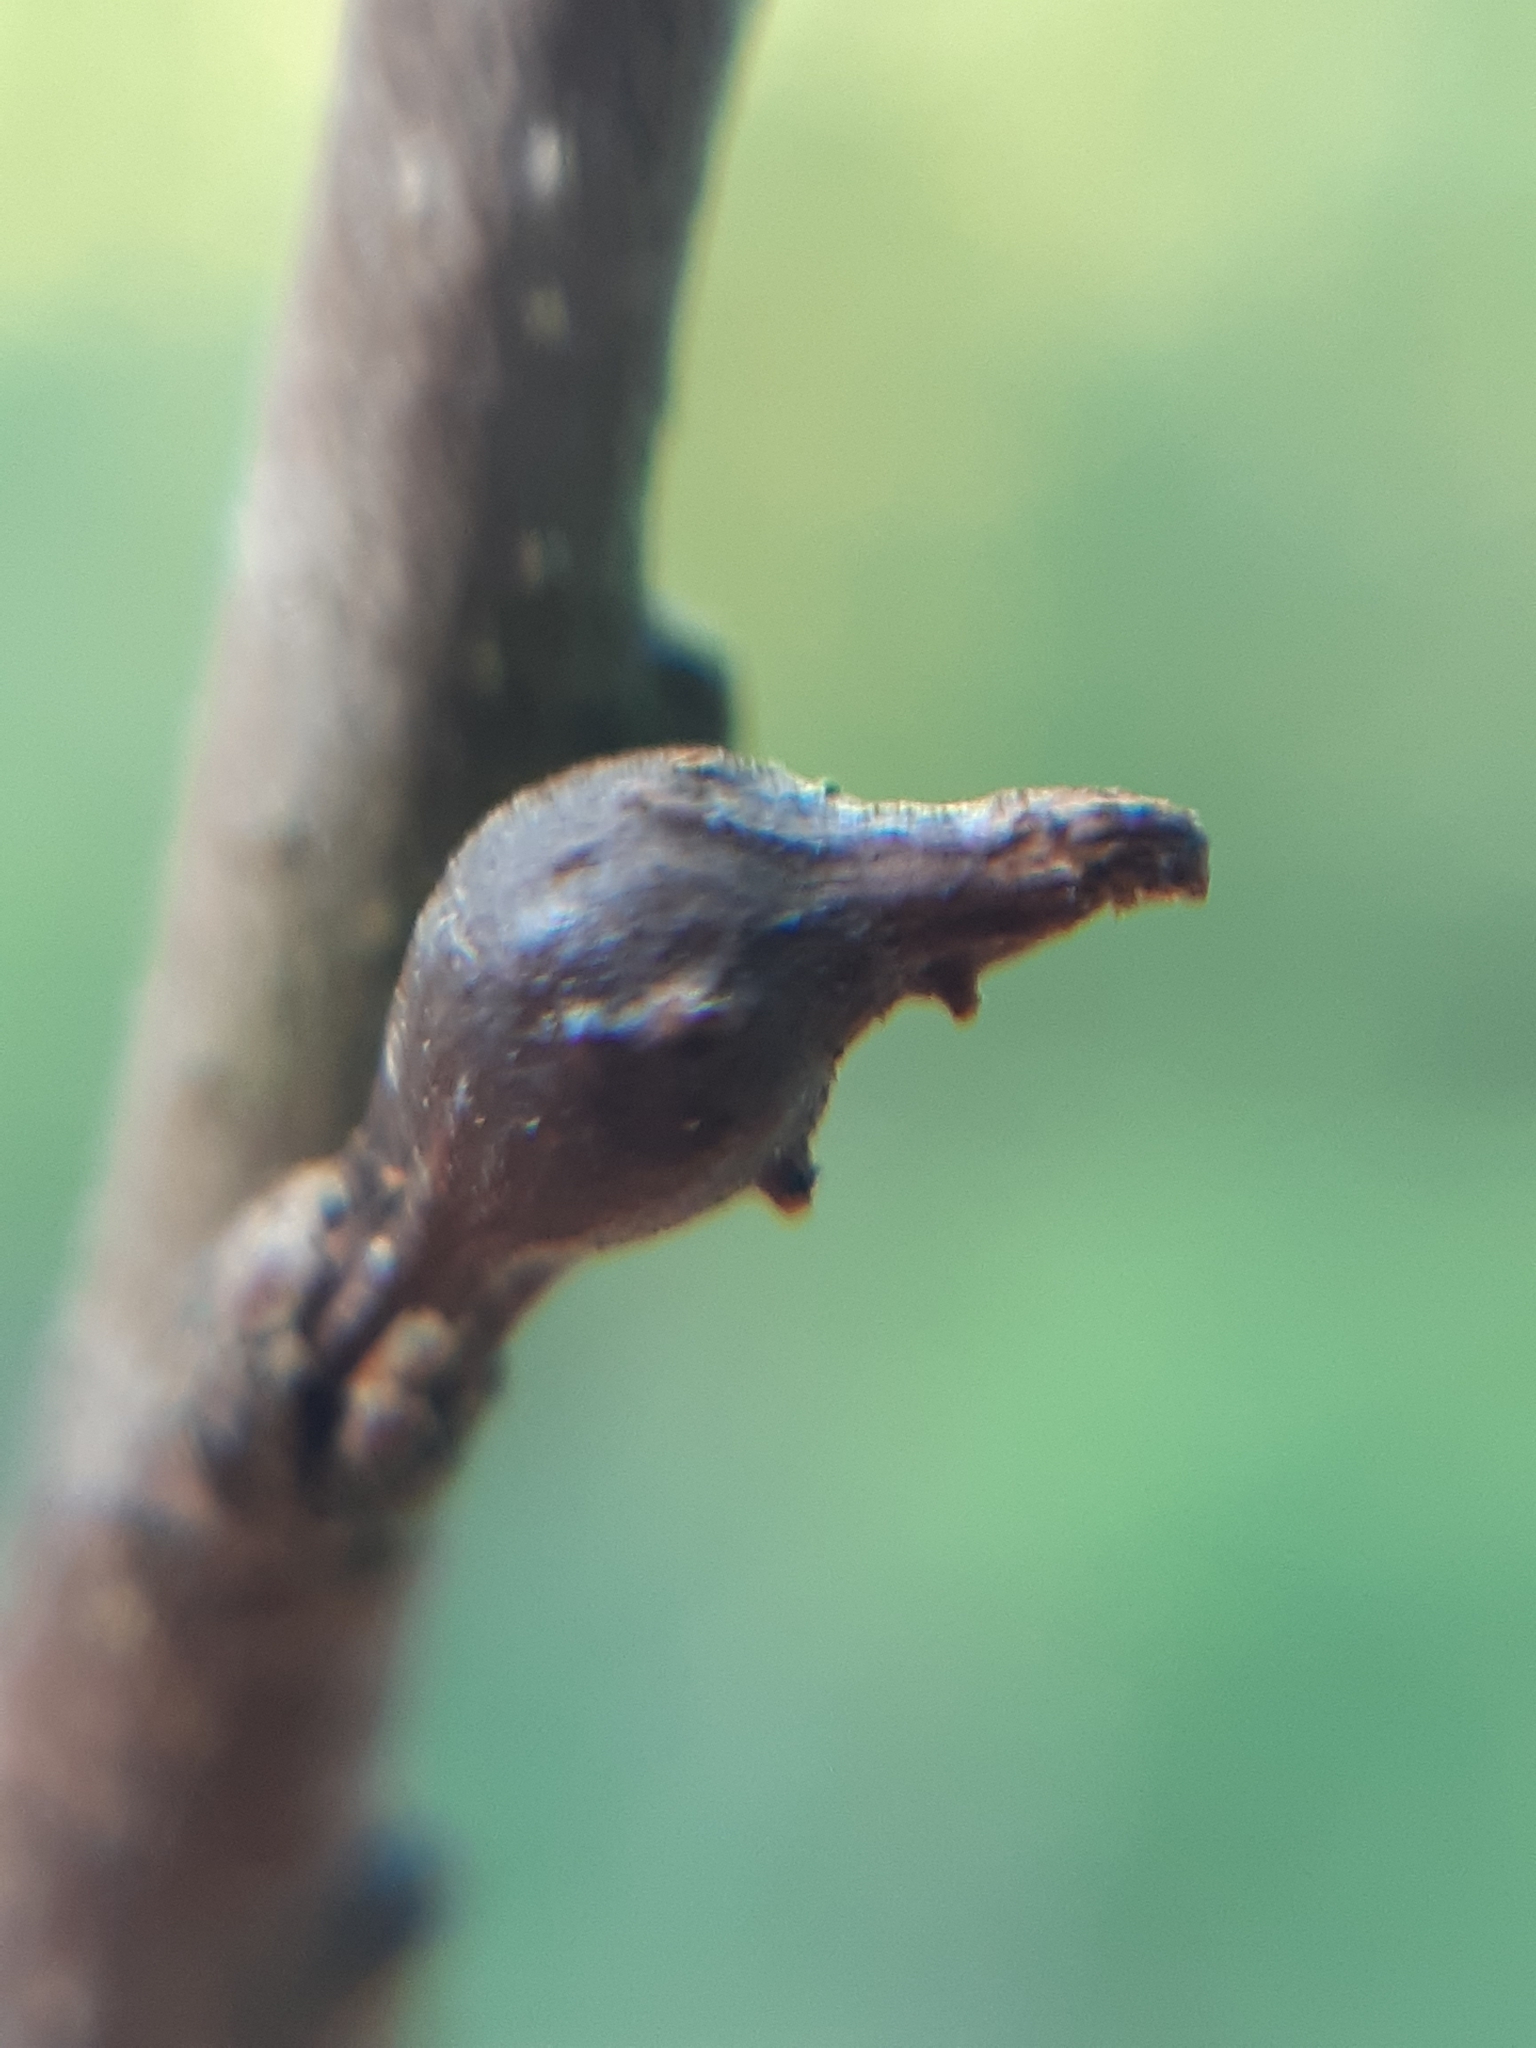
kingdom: Animalia
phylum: Arthropoda
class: Insecta
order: Hymenoptera
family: Cynipidae
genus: Andricus
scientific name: Andricus solitarius
